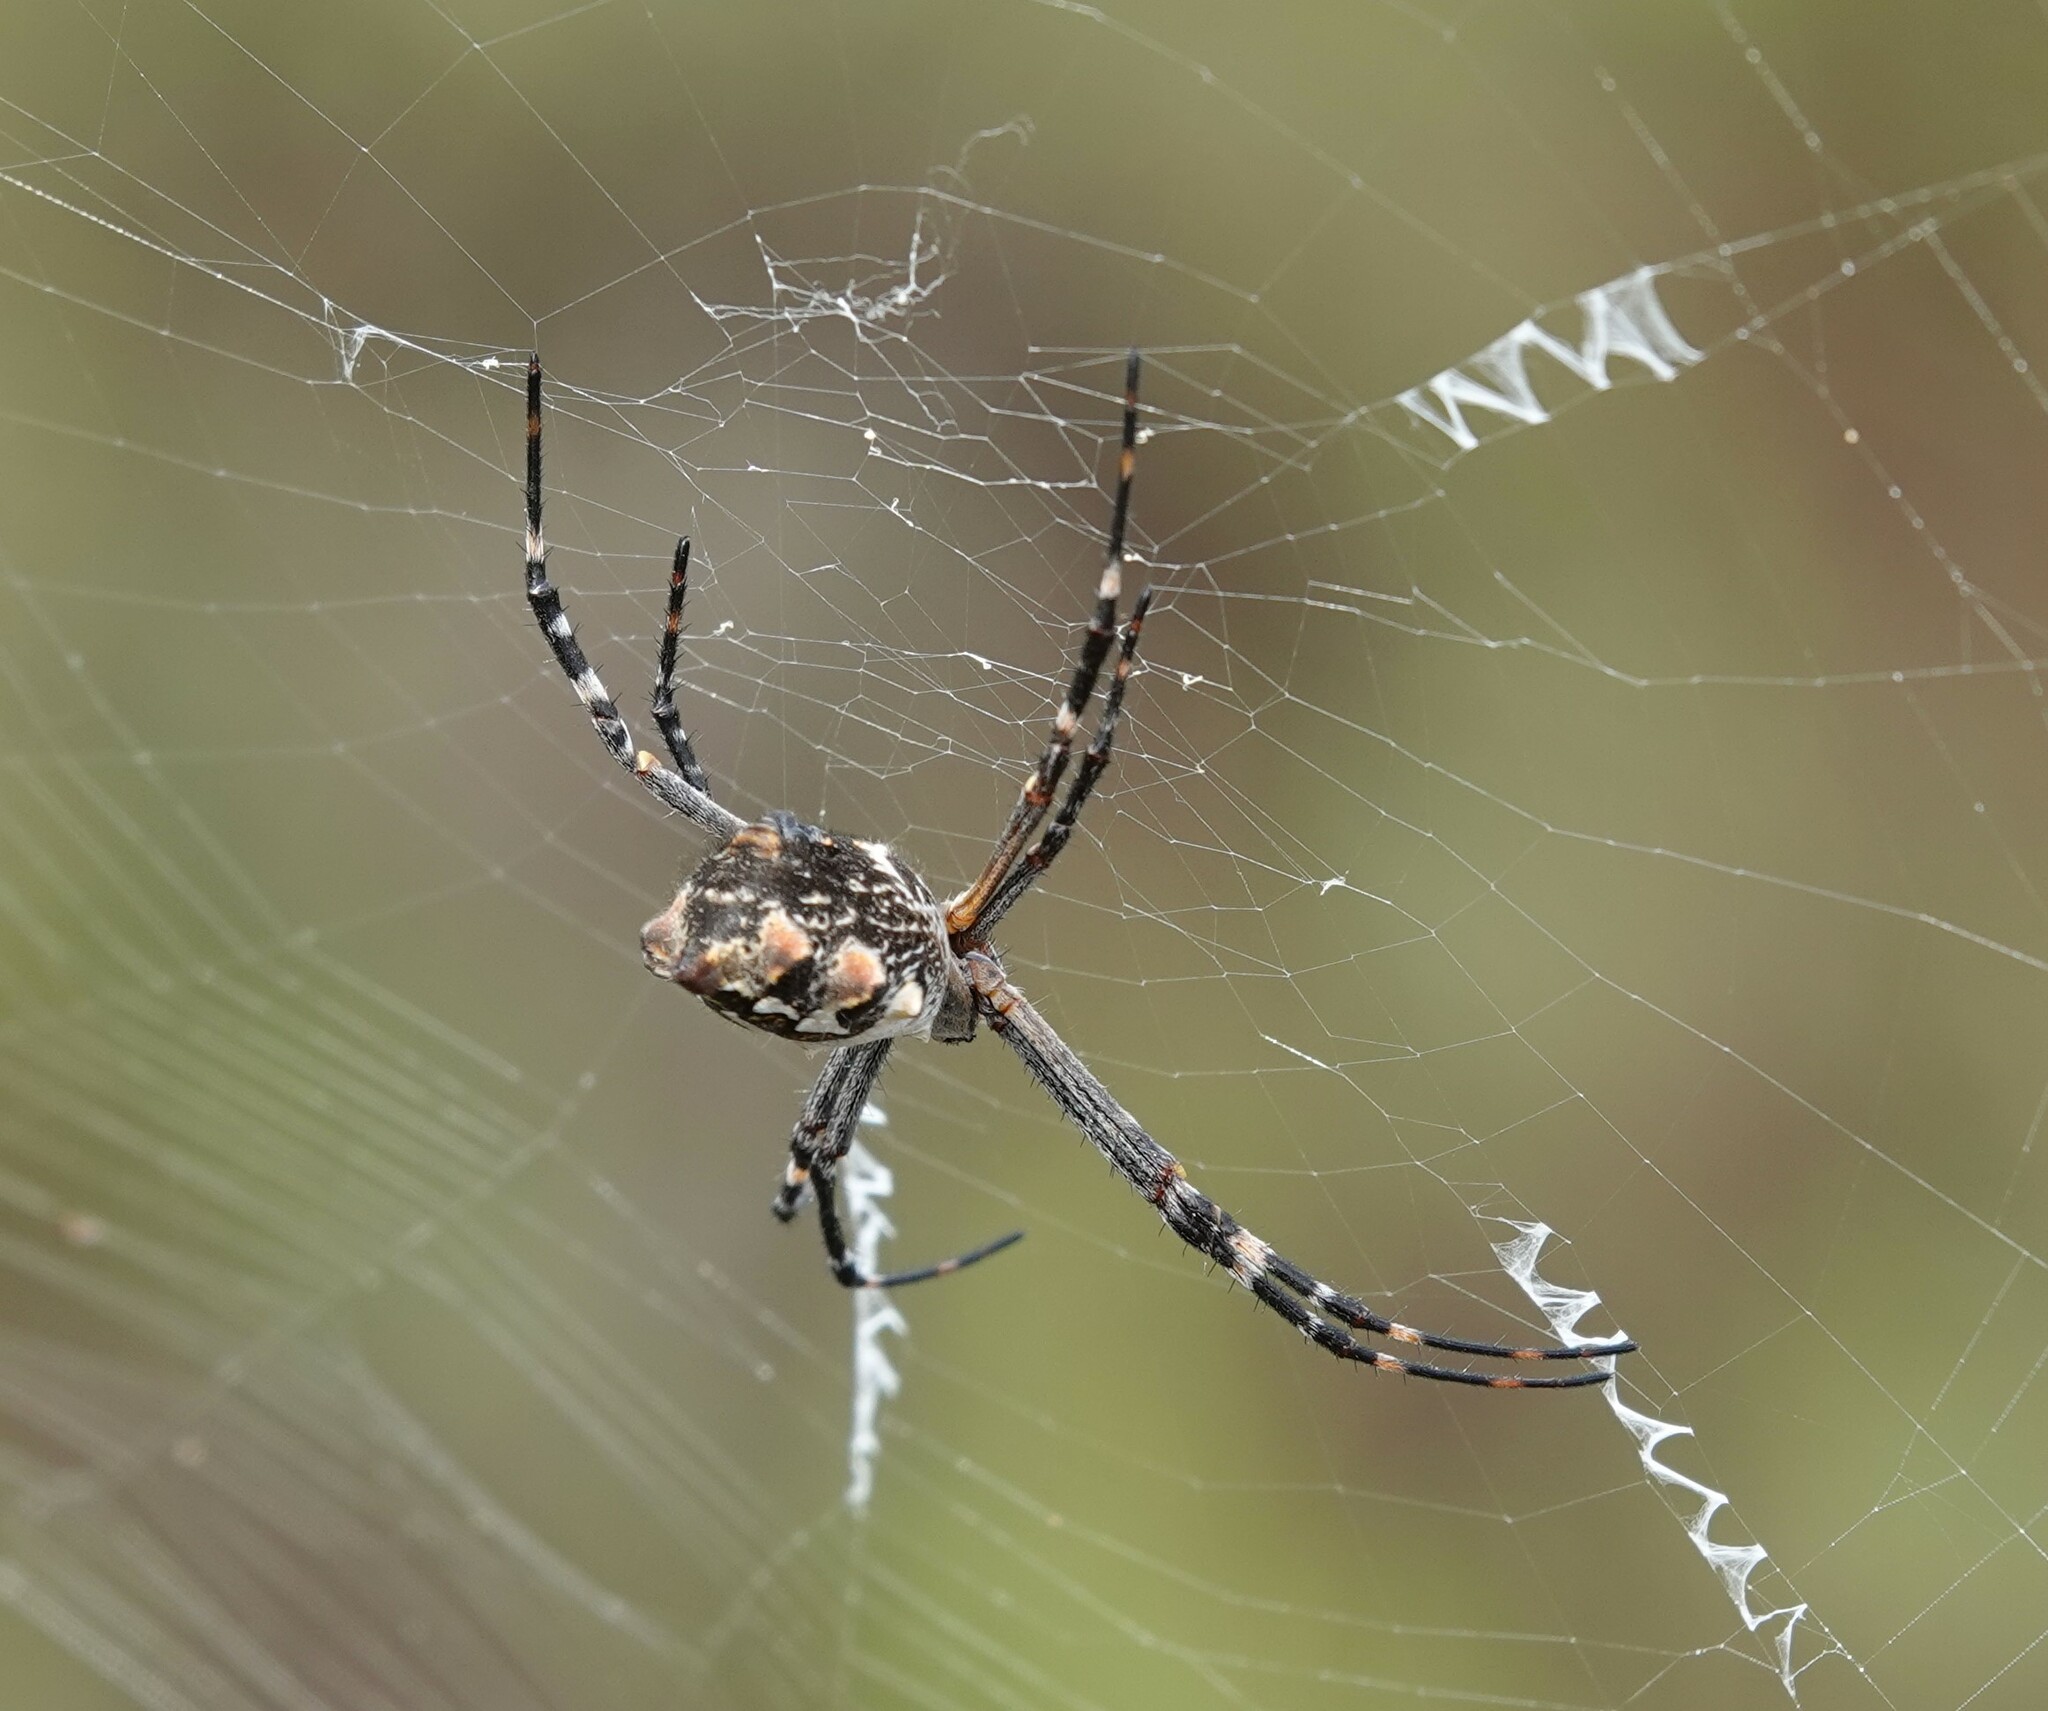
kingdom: Animalia
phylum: Arthropoda
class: Arachnida
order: Araneae
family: Araneidae
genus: Argiope
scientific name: Argiope argentata
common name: Orb weavers
